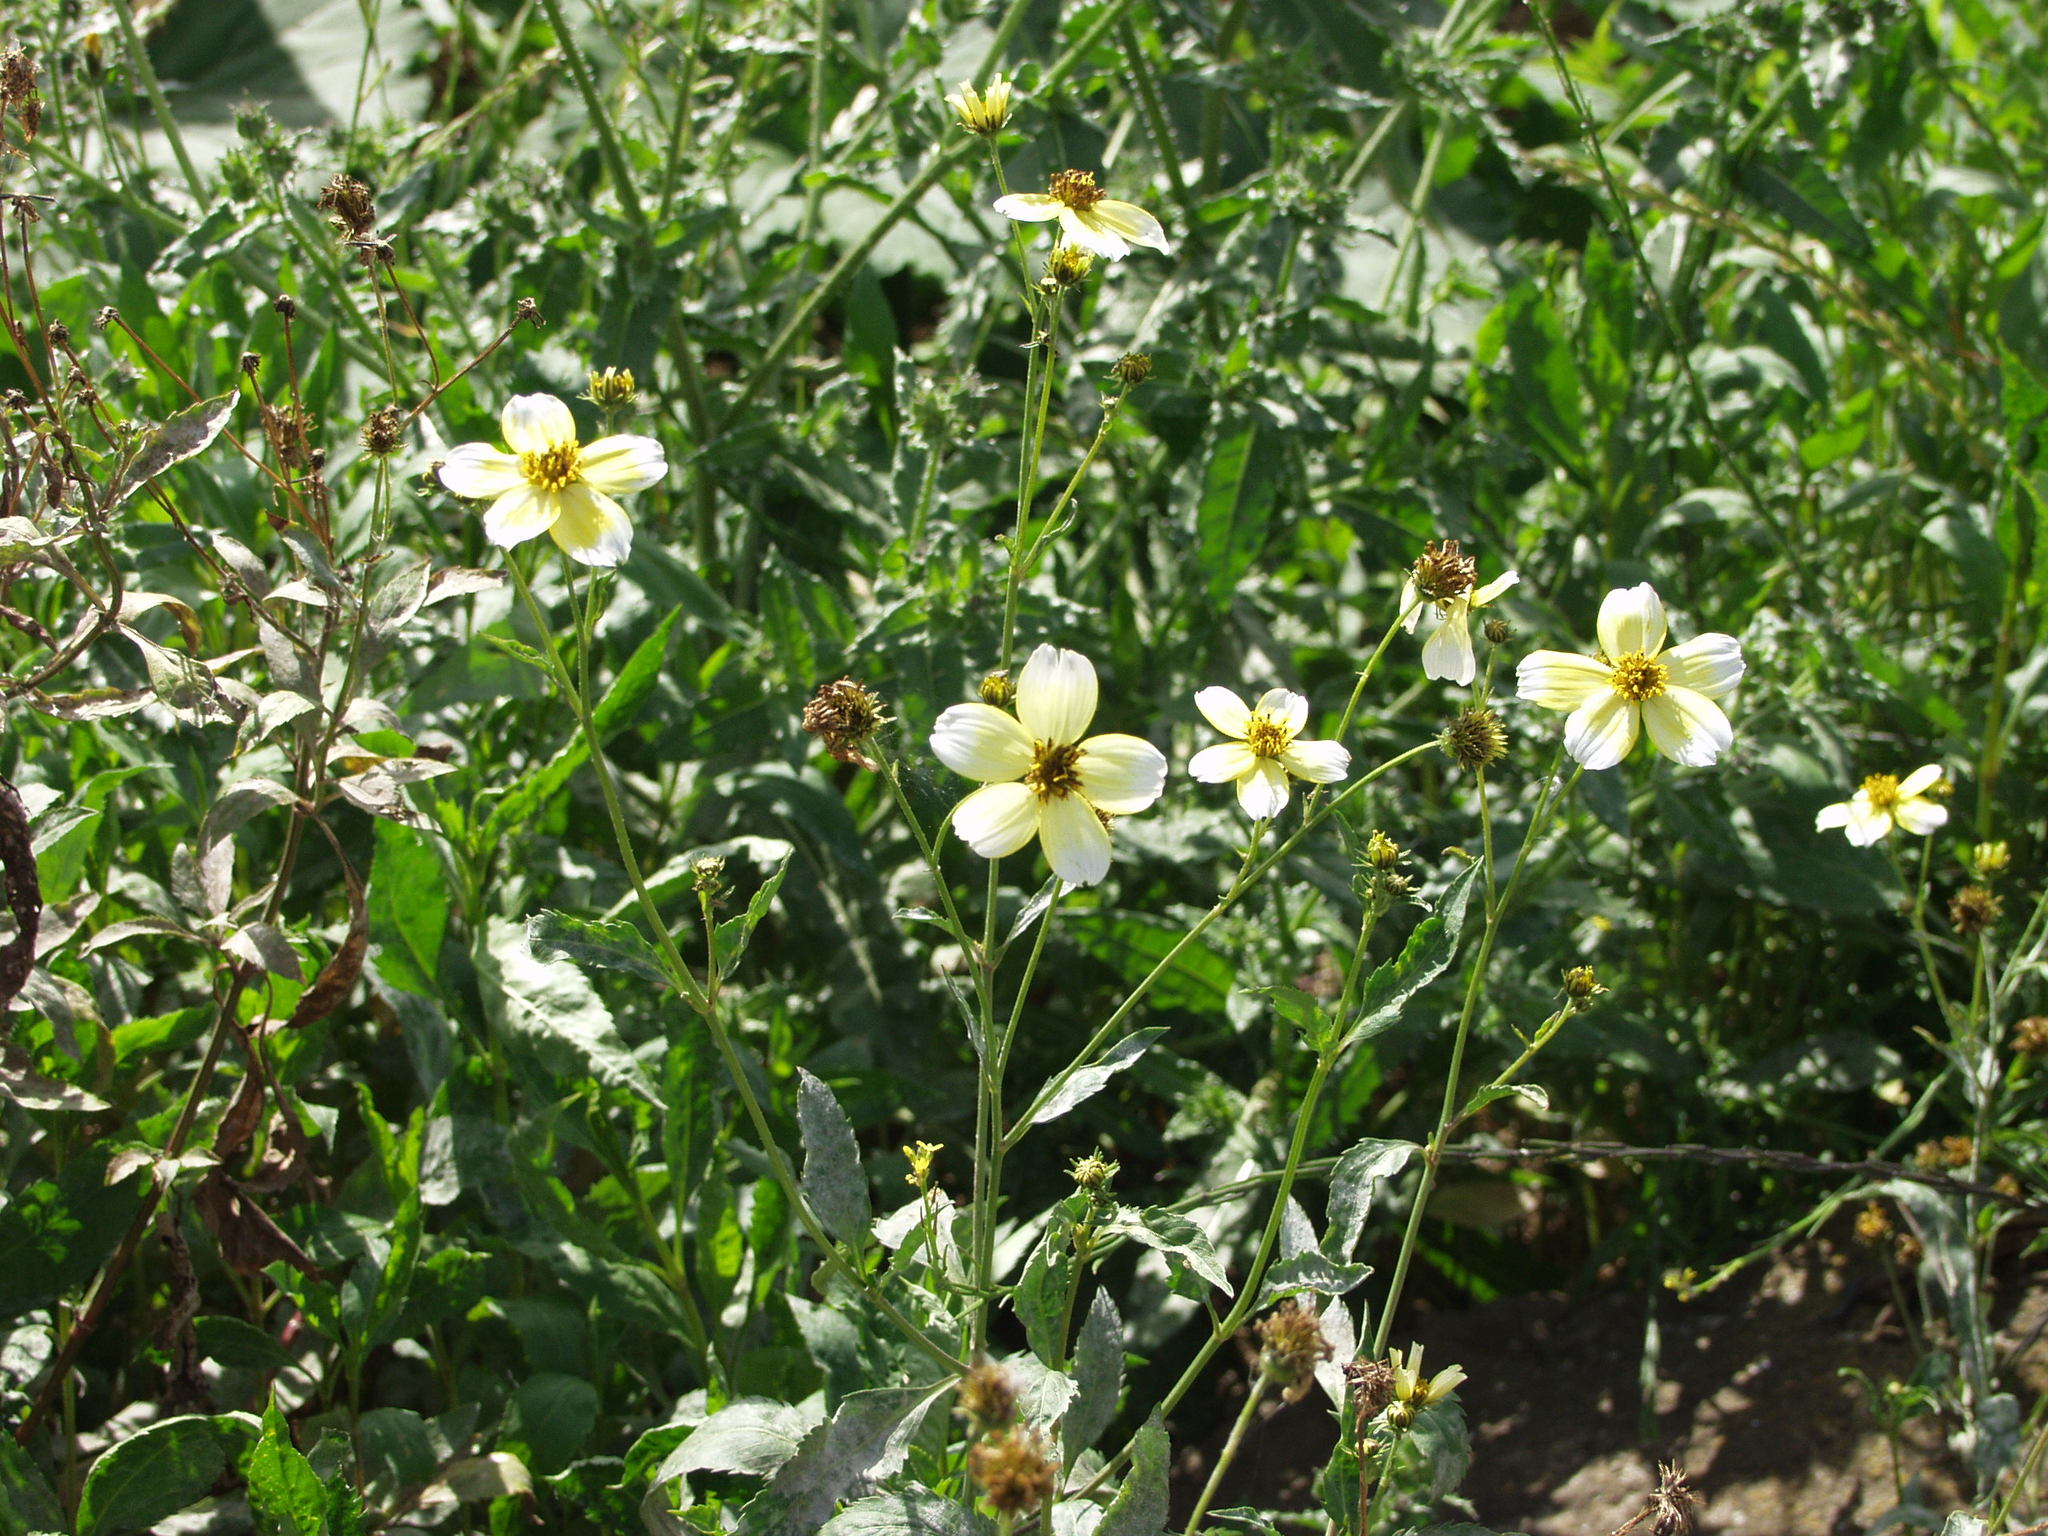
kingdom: Plantae
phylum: Tracheophyta
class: Magnoliopsida
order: Asterales
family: Asteraceae
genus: Bidens
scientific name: Bidens aurea
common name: Arizona beggar-ticks
